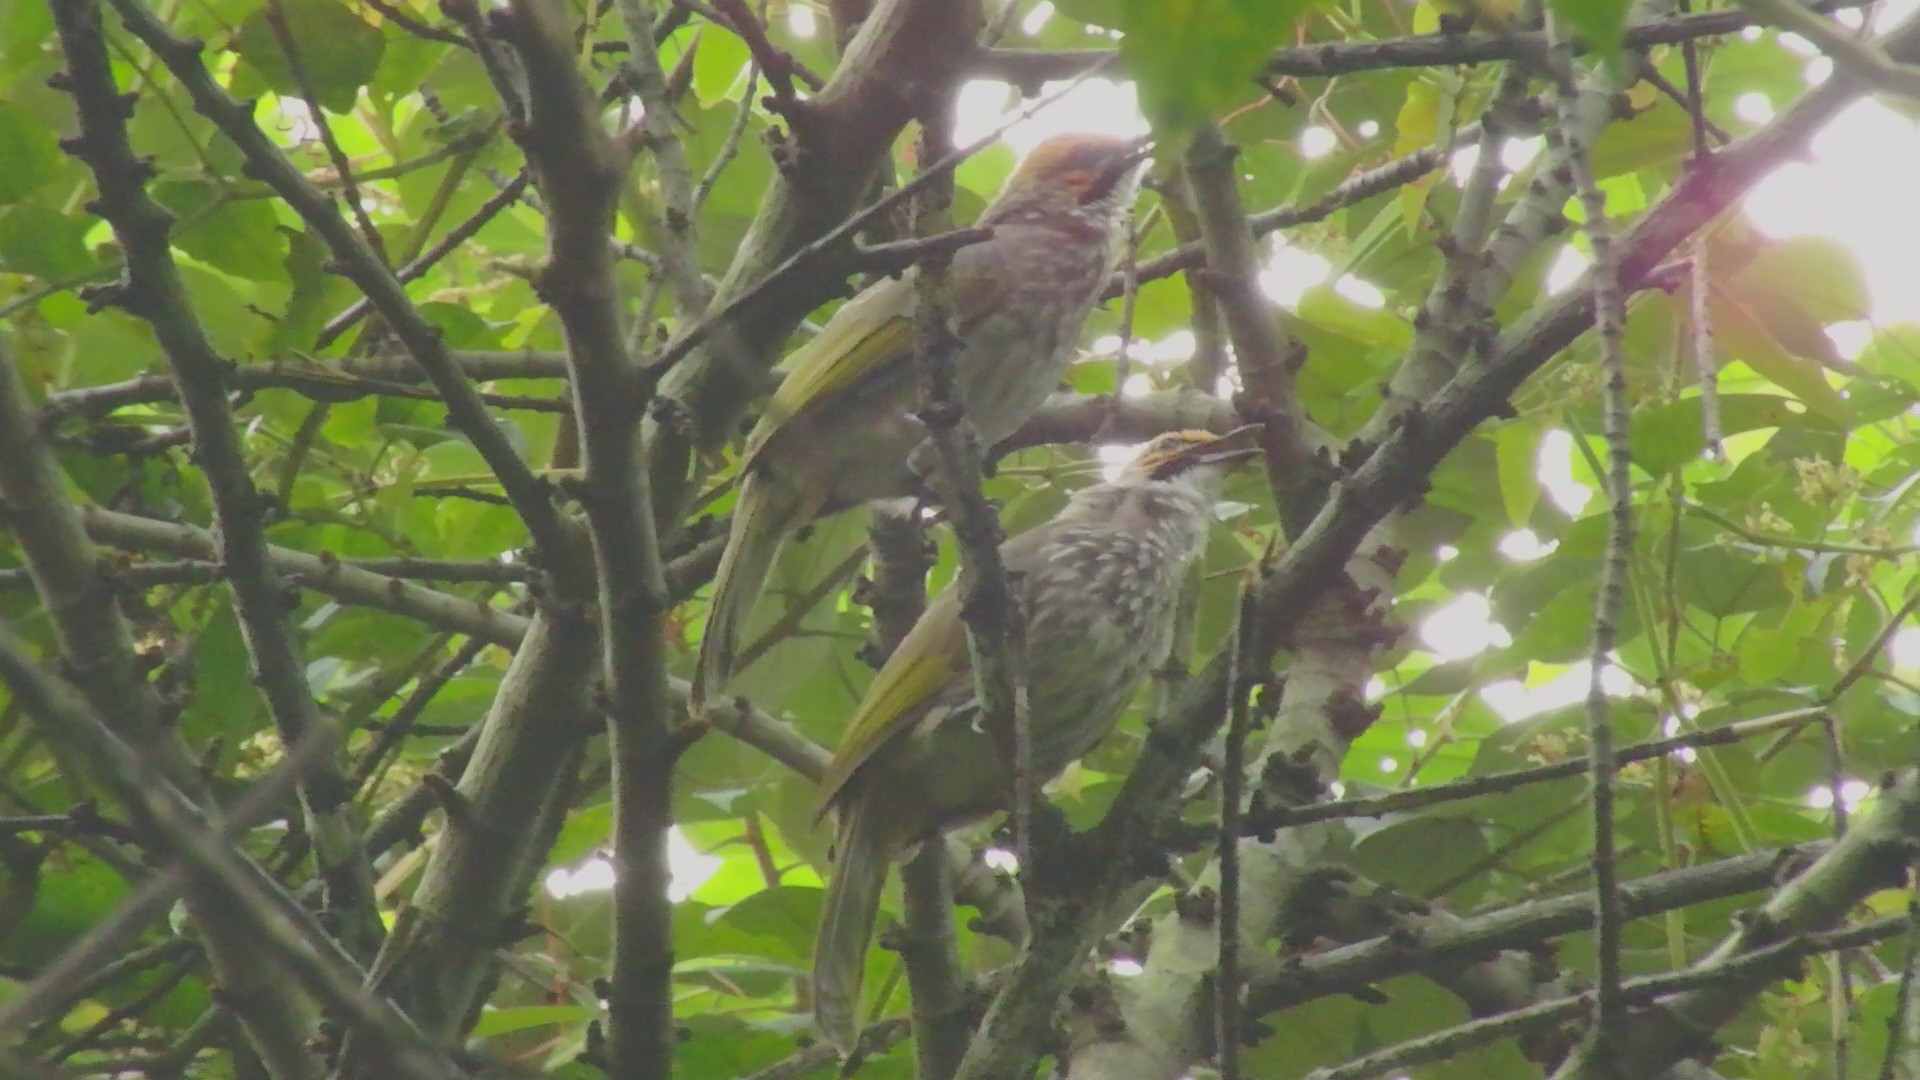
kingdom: Animalia
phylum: Chordata
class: Aves
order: Passeriformes
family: Pycnonotidae
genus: Pycnonotus
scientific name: Pycnonotus zeylanicus
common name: Straw-headed bulbul
